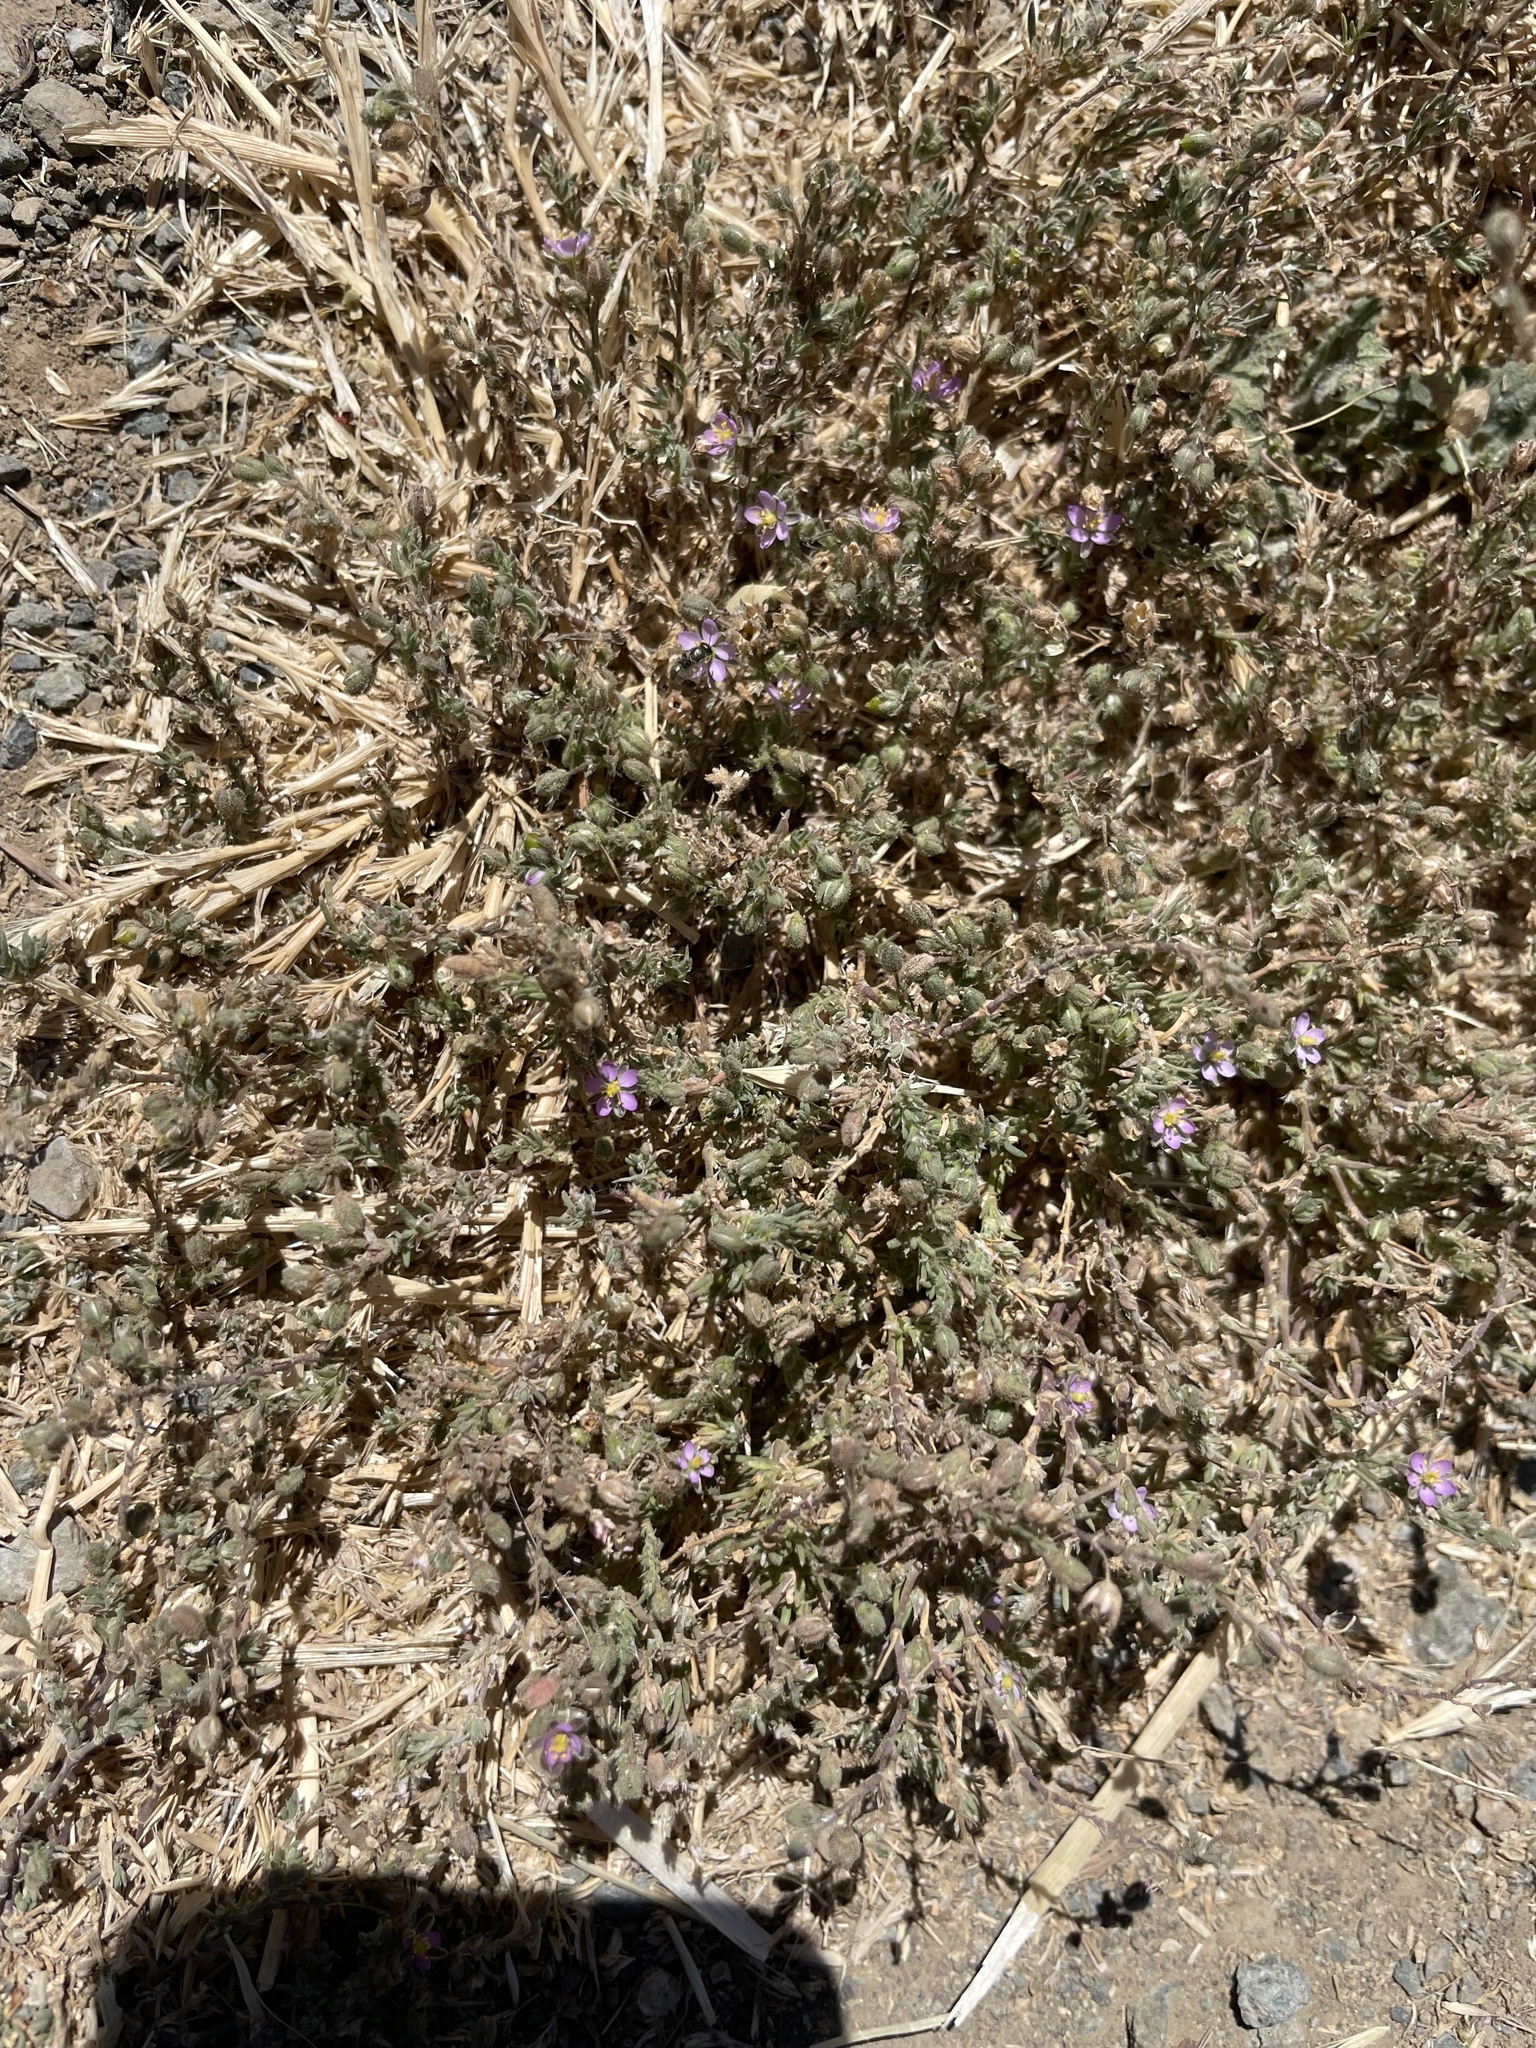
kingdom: Plantae
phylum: Tracheophyta
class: Magnoliopsida
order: Caryophyllales
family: Caryophyllaceae
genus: Spergularia
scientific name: Spergularia rubra
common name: Red sand-spurrey
